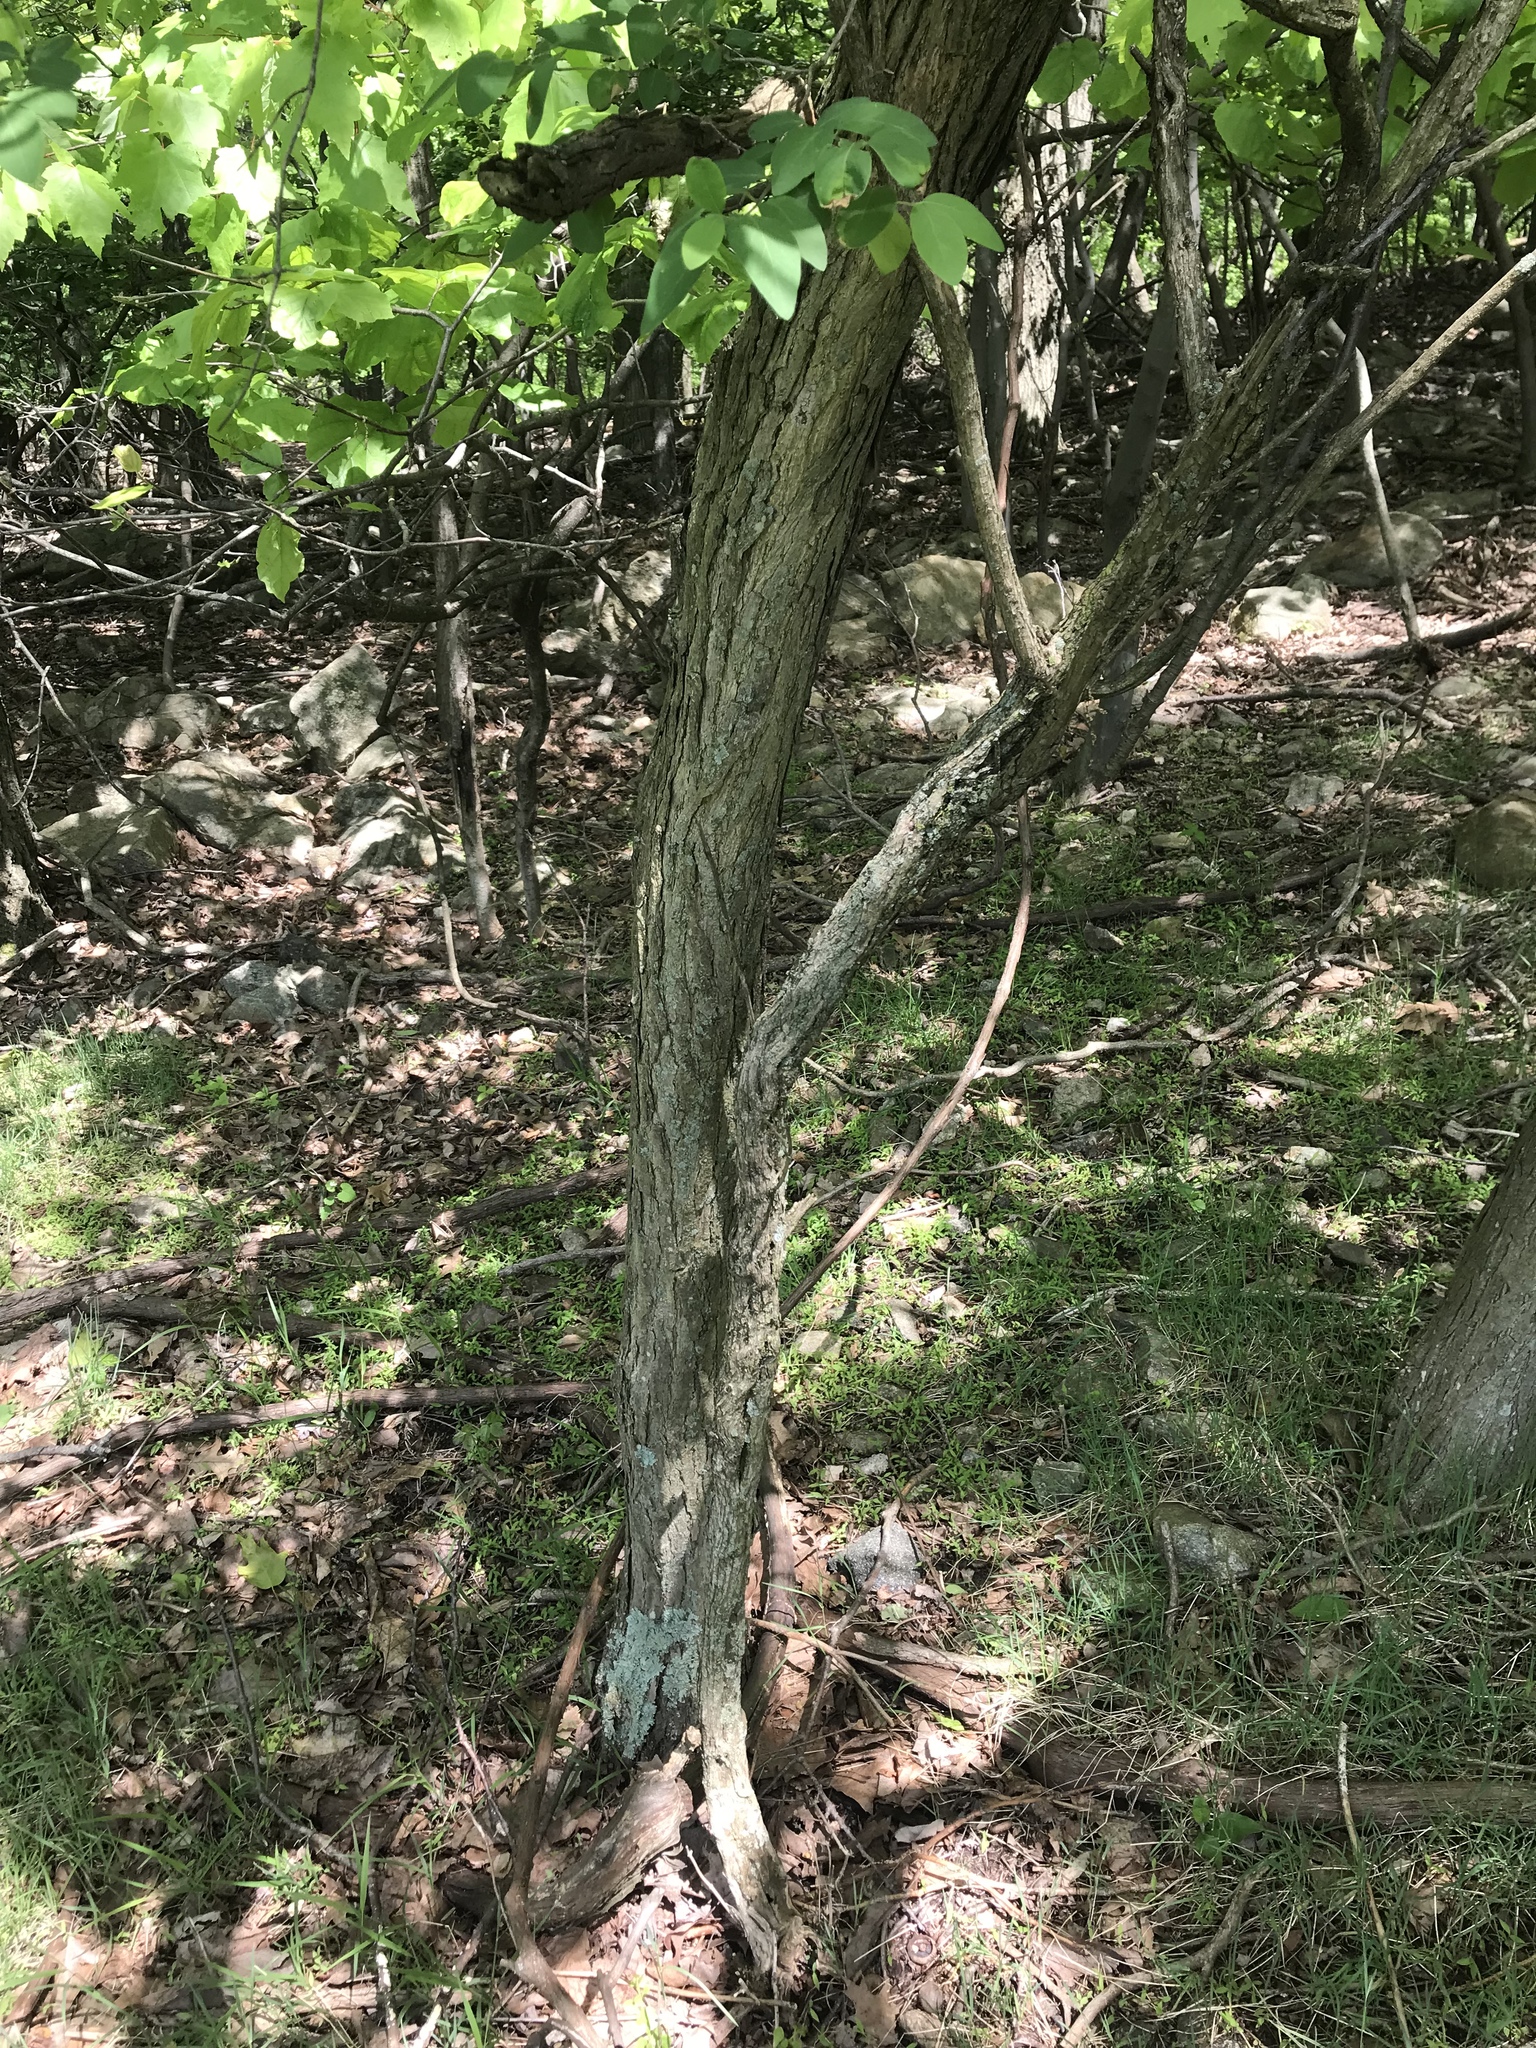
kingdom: Plantae
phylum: Tracheophyta
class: Magnoliopsida
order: Laurales
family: Lauraceae
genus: Sassafras
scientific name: Sassafras albidum
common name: Sassafras
